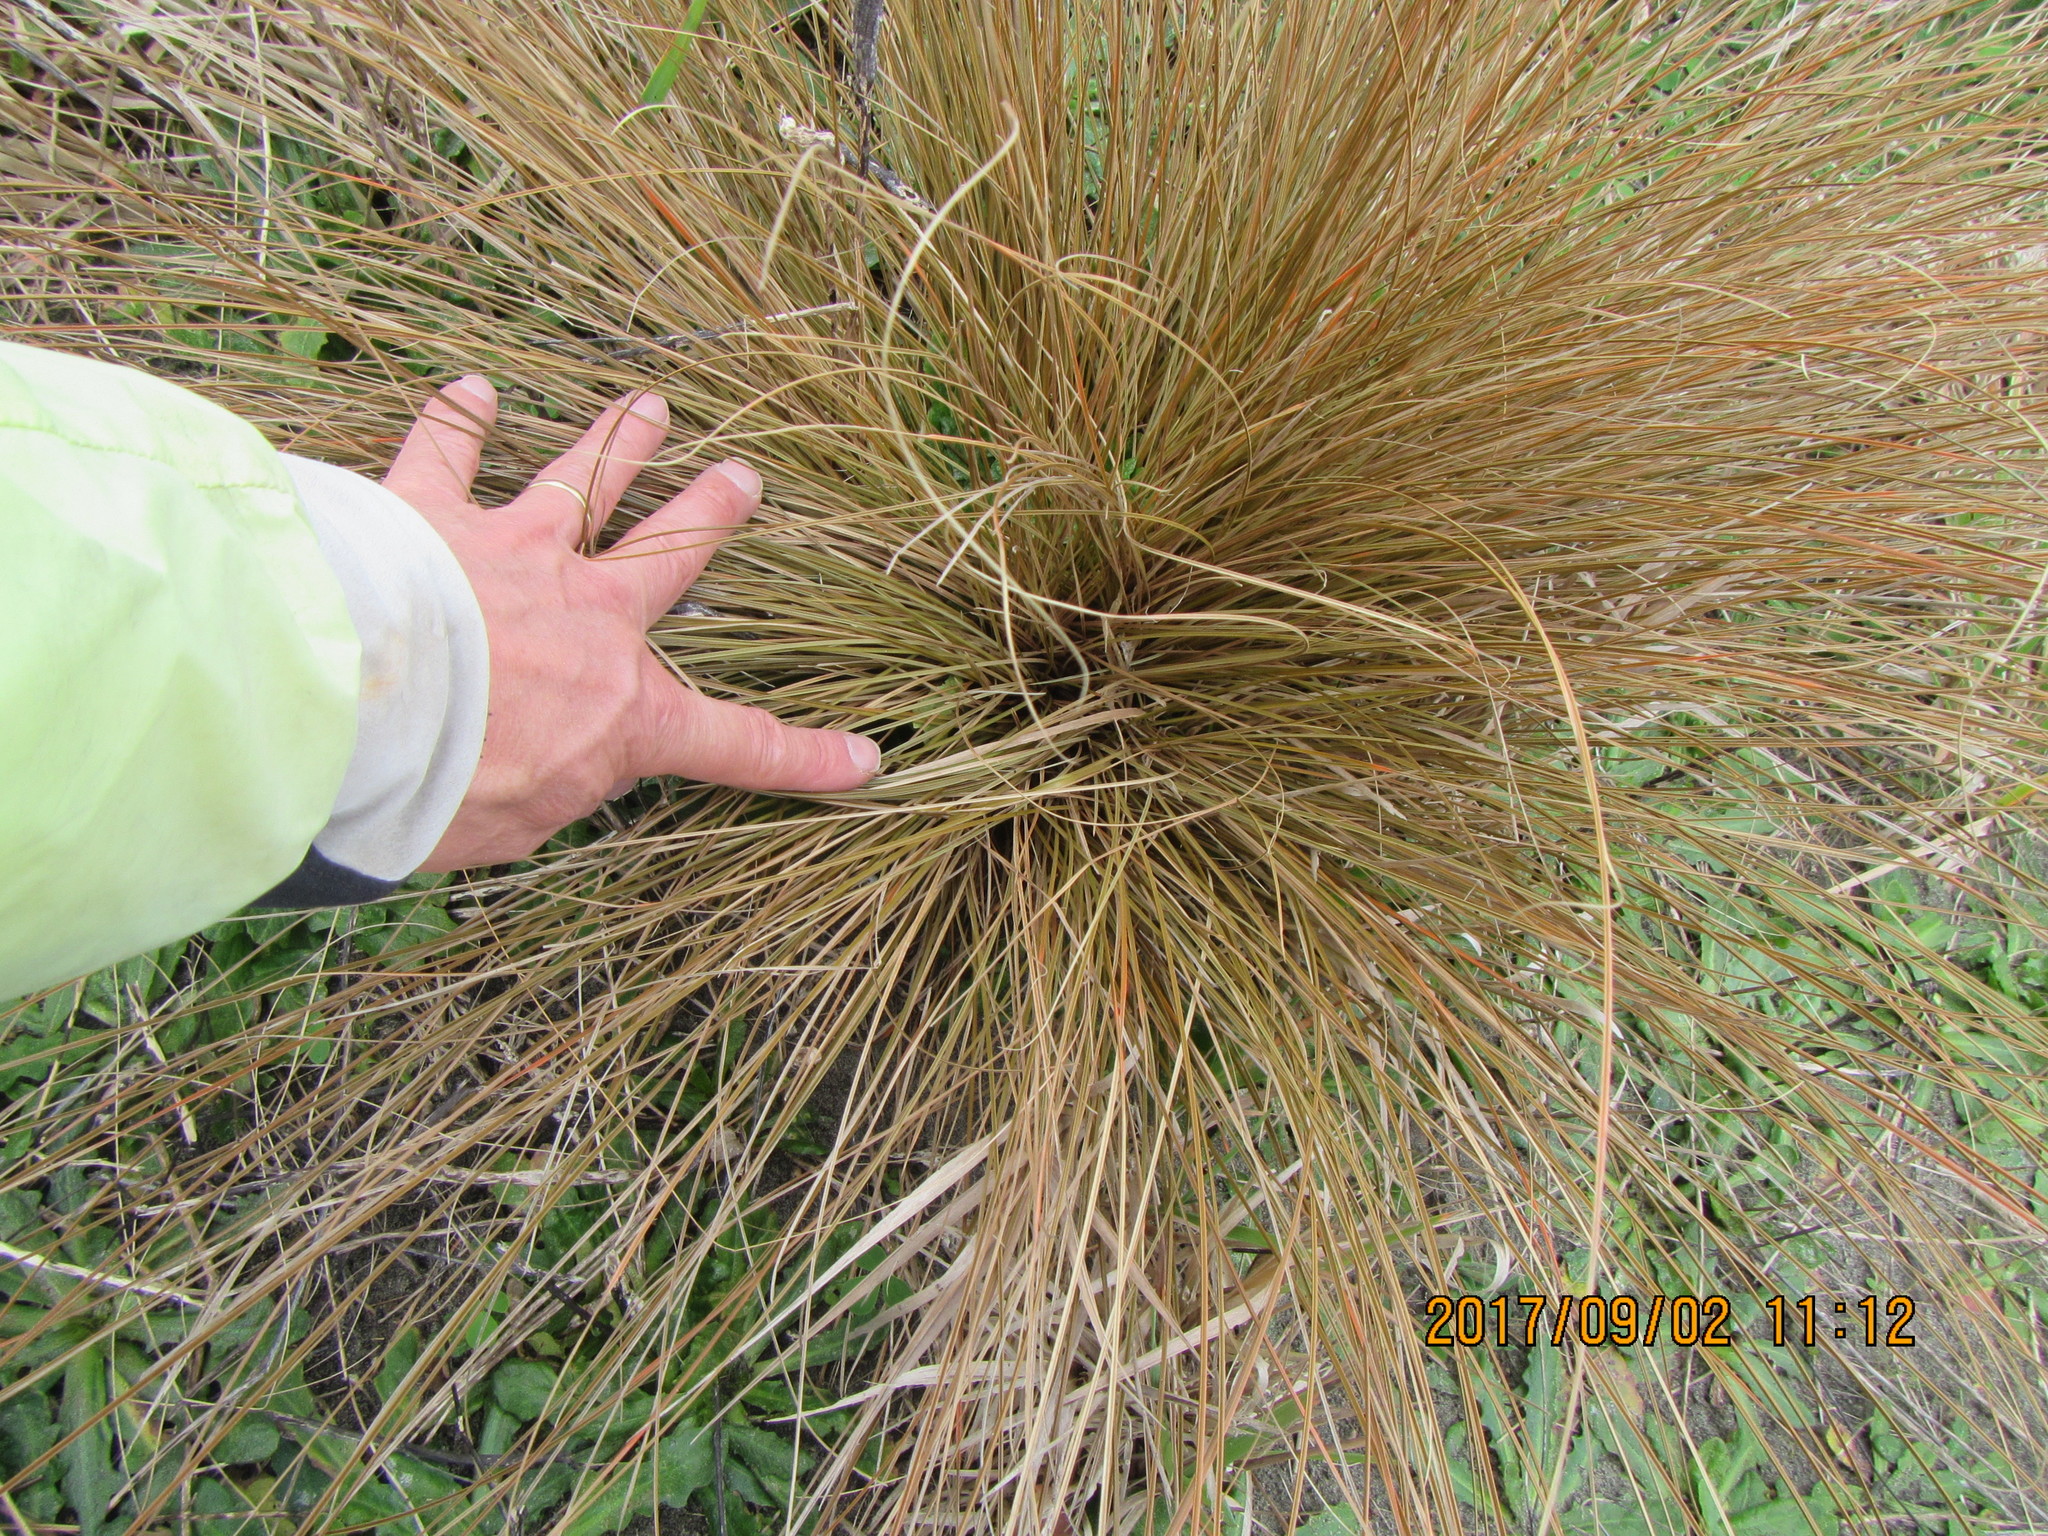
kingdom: Plantae
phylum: Tracheophyta
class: Liliopsida
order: Poales
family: Cyperaceae
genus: Carex
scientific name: Carex testacea
